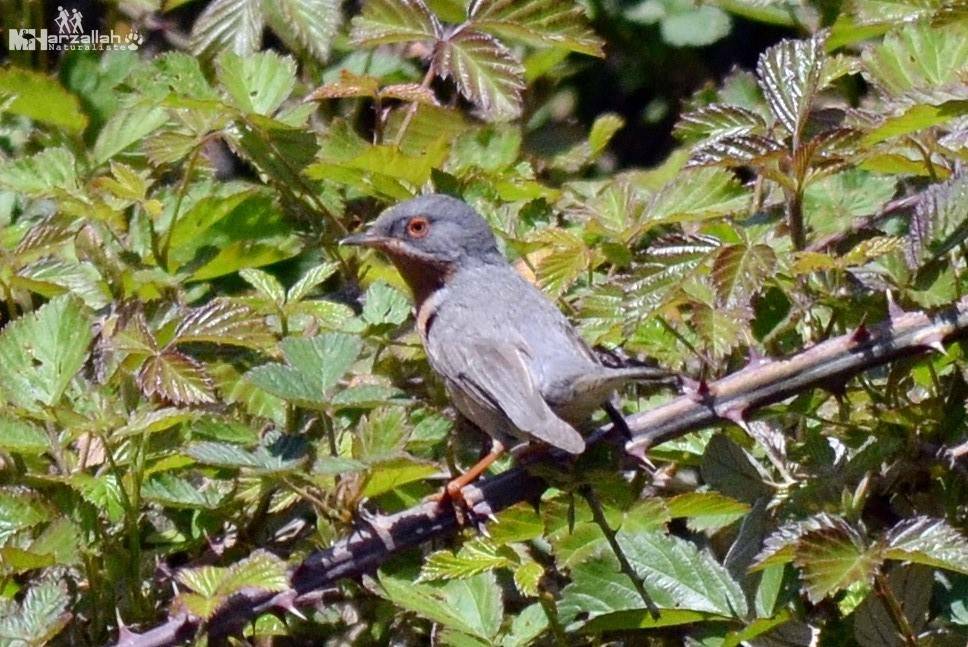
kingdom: Animalia
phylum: Chordata
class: Aves
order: Passeriformes
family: Sylviidae
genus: Curruca
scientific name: Curruca iberiae
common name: Western subalpine warbler
